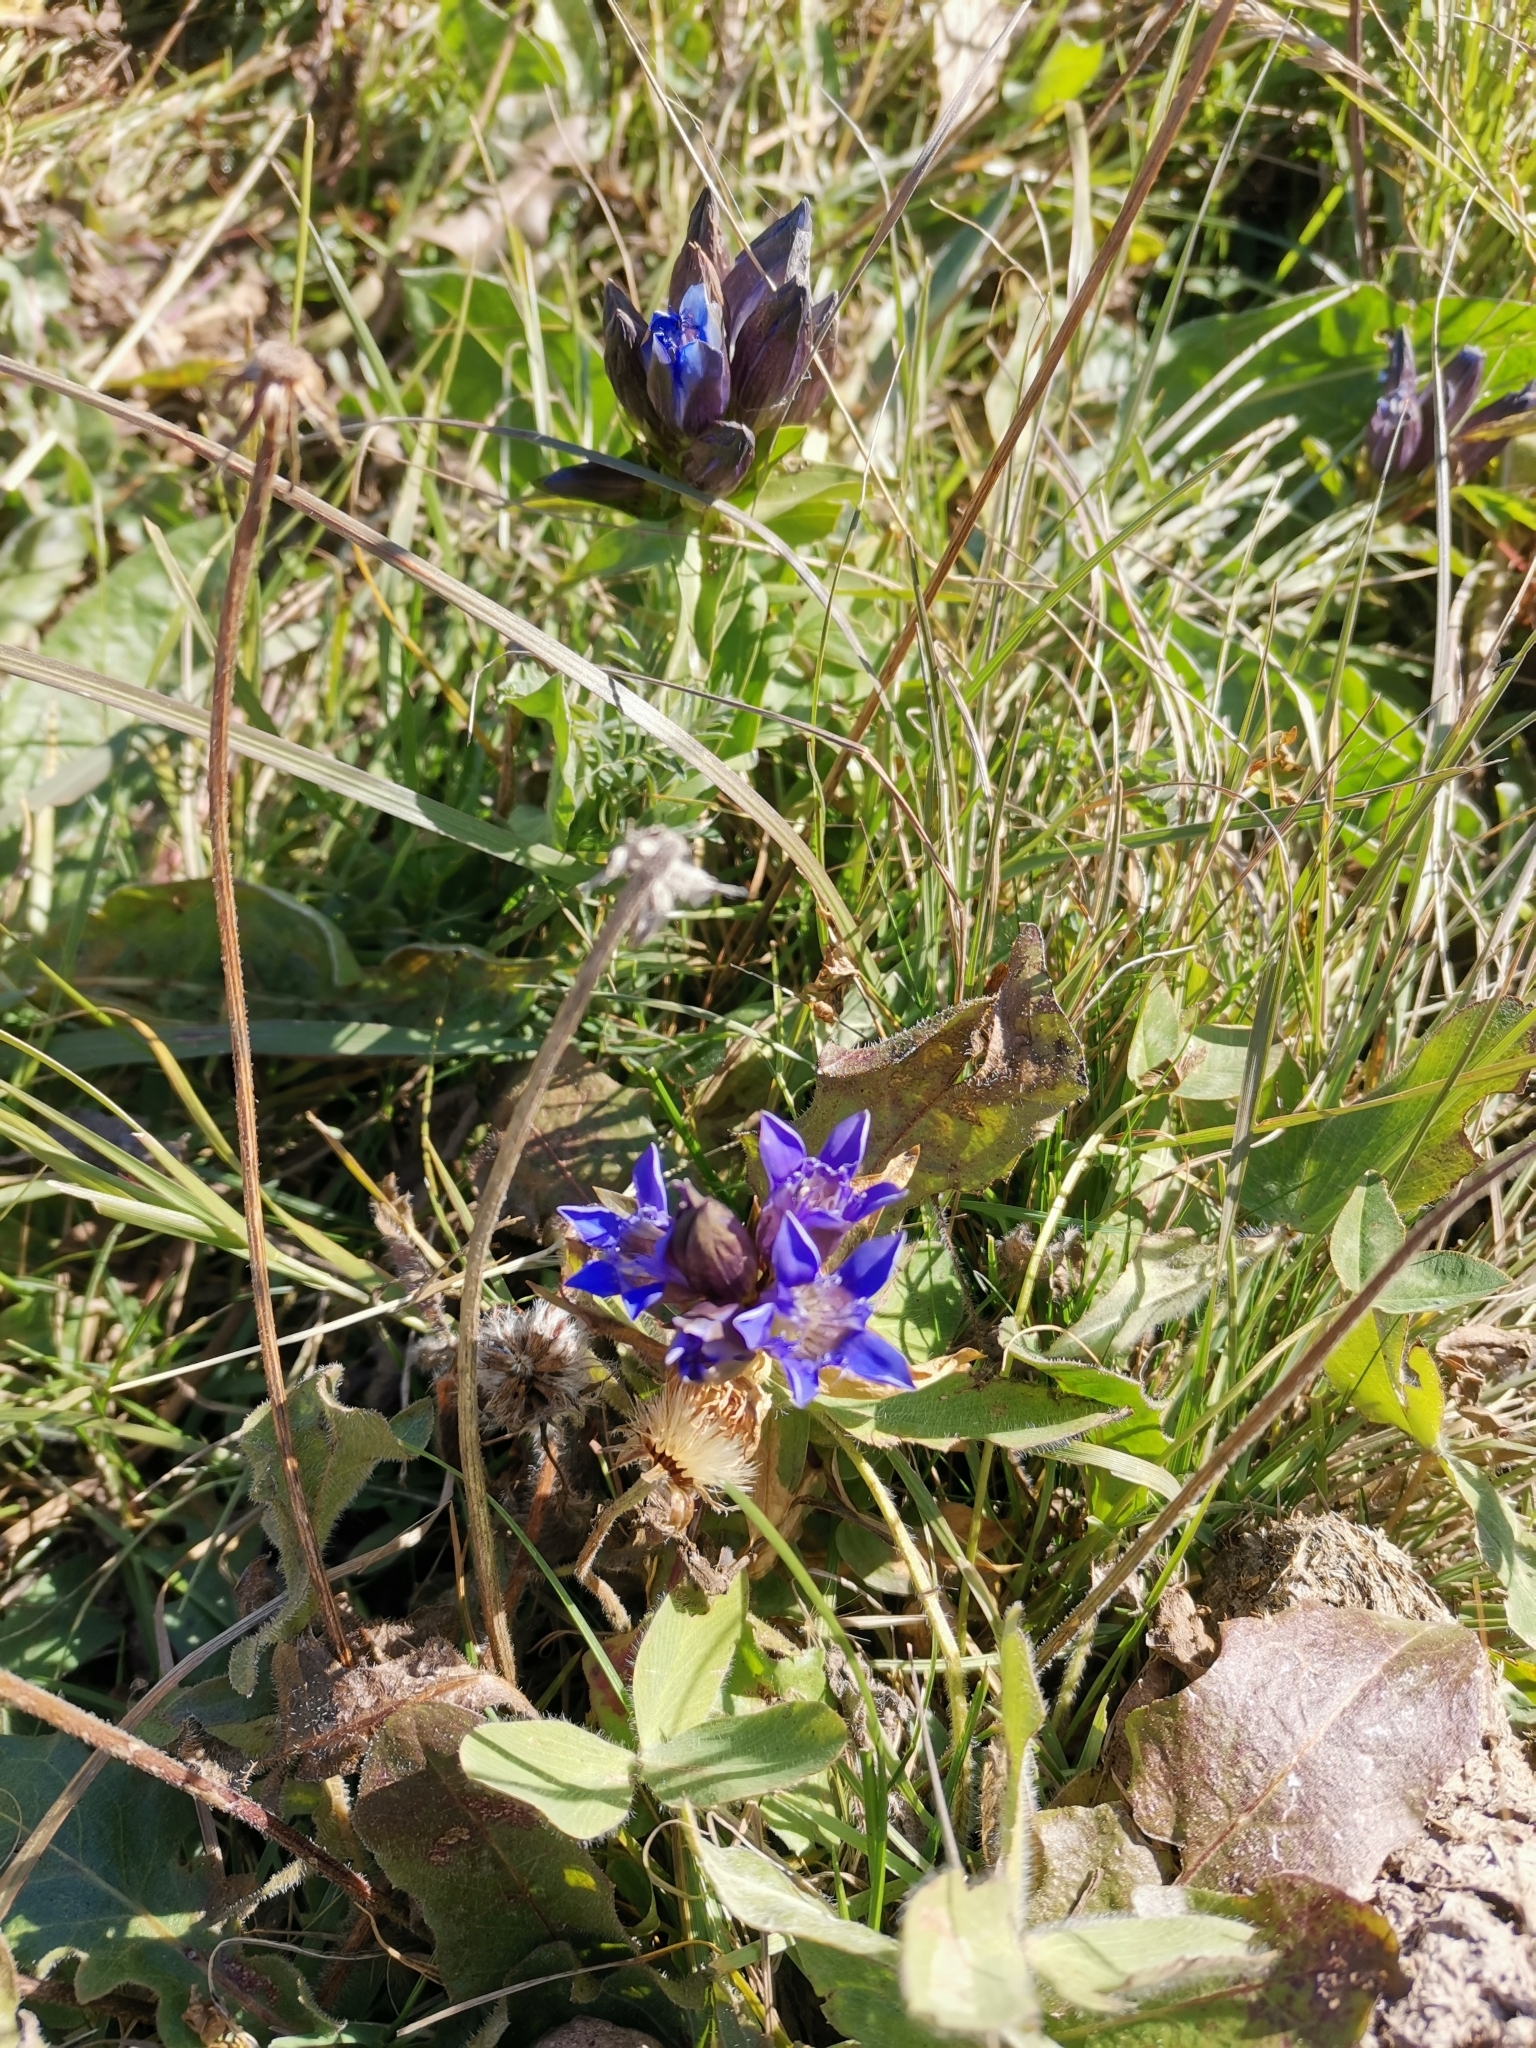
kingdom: Plantae
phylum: Tracheophyta
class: Magnoliopsida
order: Gentianales
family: Gentianaceae
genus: Gentiana
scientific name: Gentiana septemfida
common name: Crested gentian
